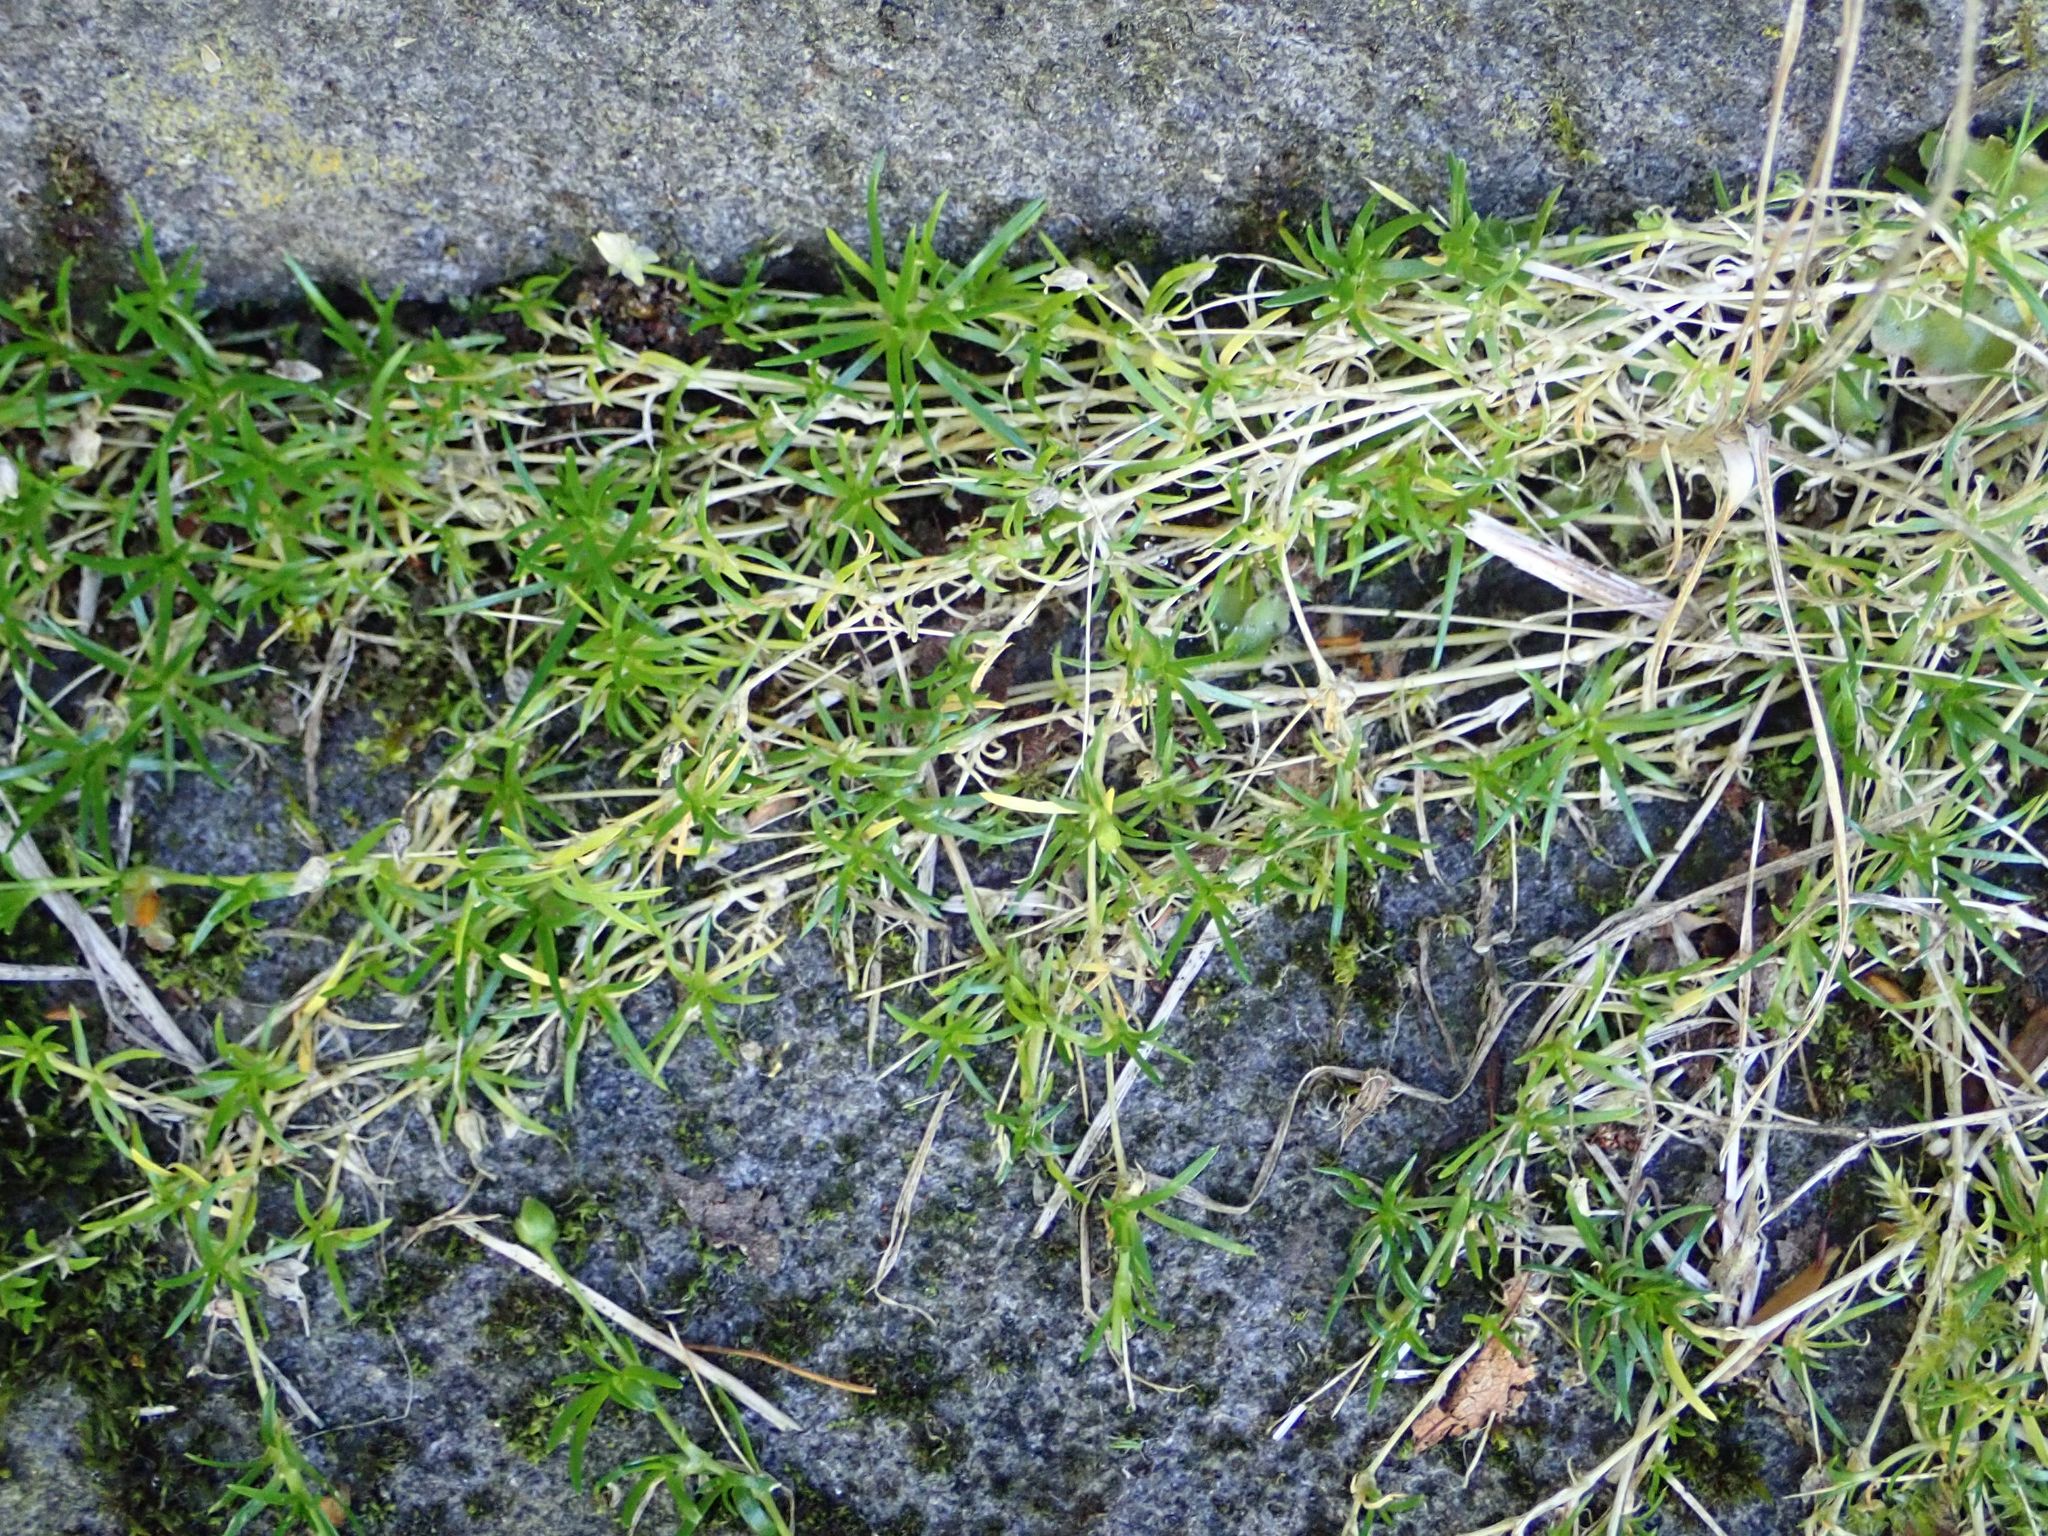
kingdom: Plantae
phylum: Tracheophyta
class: Magnoliopsida
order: Caryophyllales
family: Caryophyllaceae
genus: Sagina
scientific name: Sagina procumbens
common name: Procumbent pearlwort
